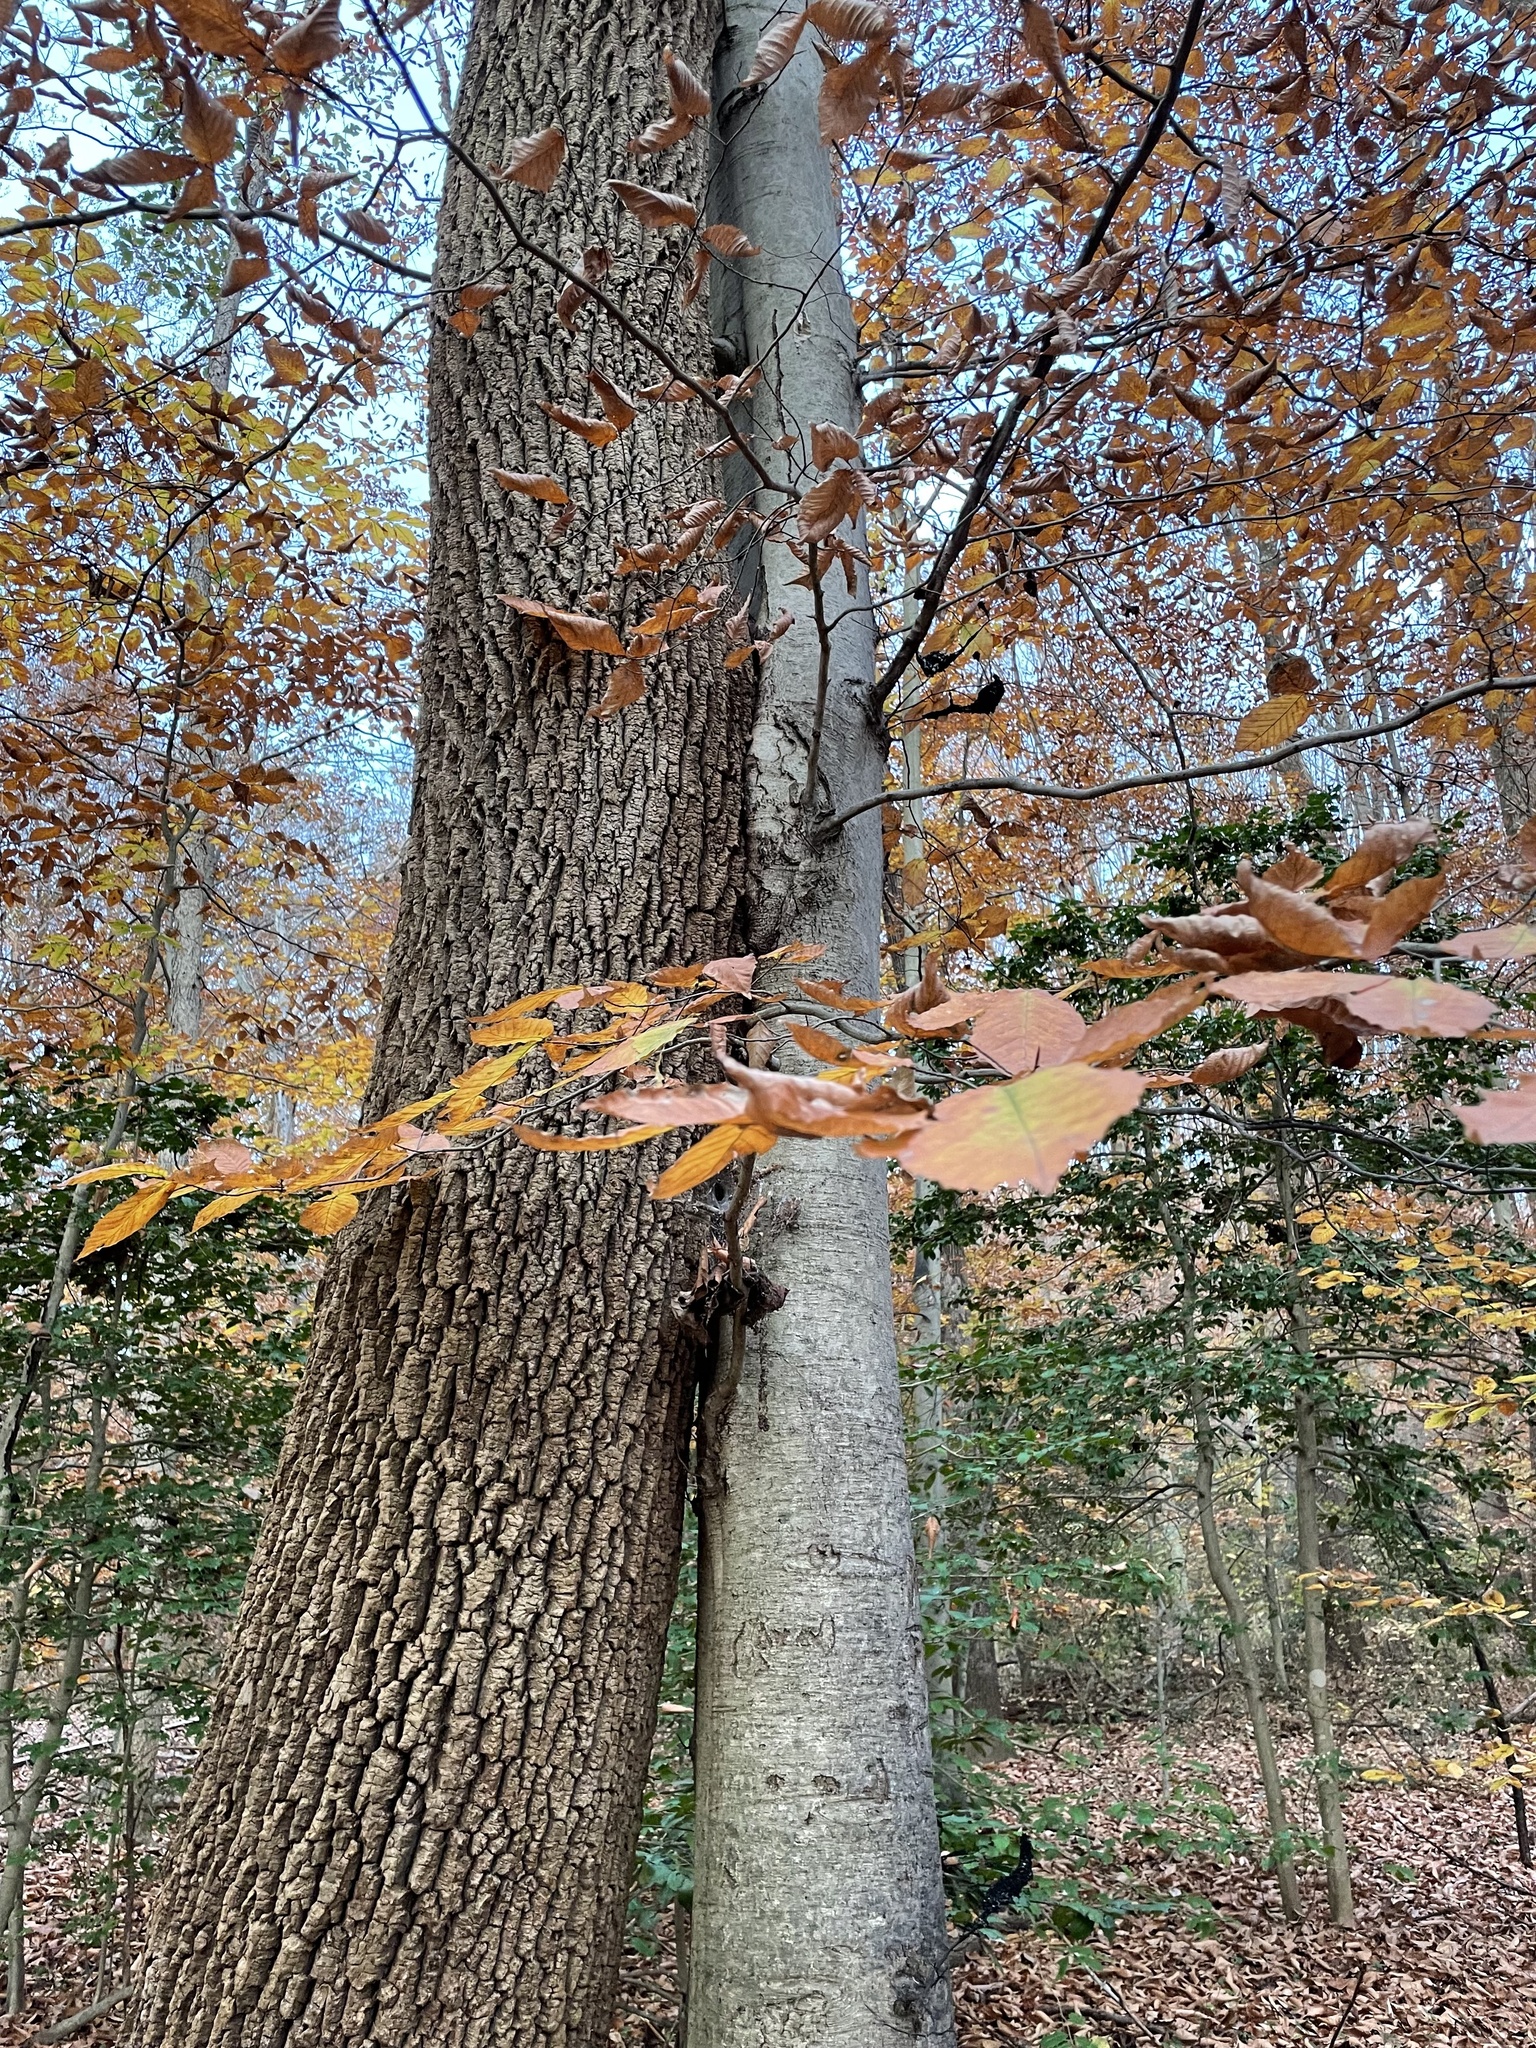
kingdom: Plantae
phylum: Tracheophyta
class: Magnoliopsida
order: Fagales
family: Fagaceae
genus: Fagus
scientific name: Fagus grandifolia
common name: American beech
